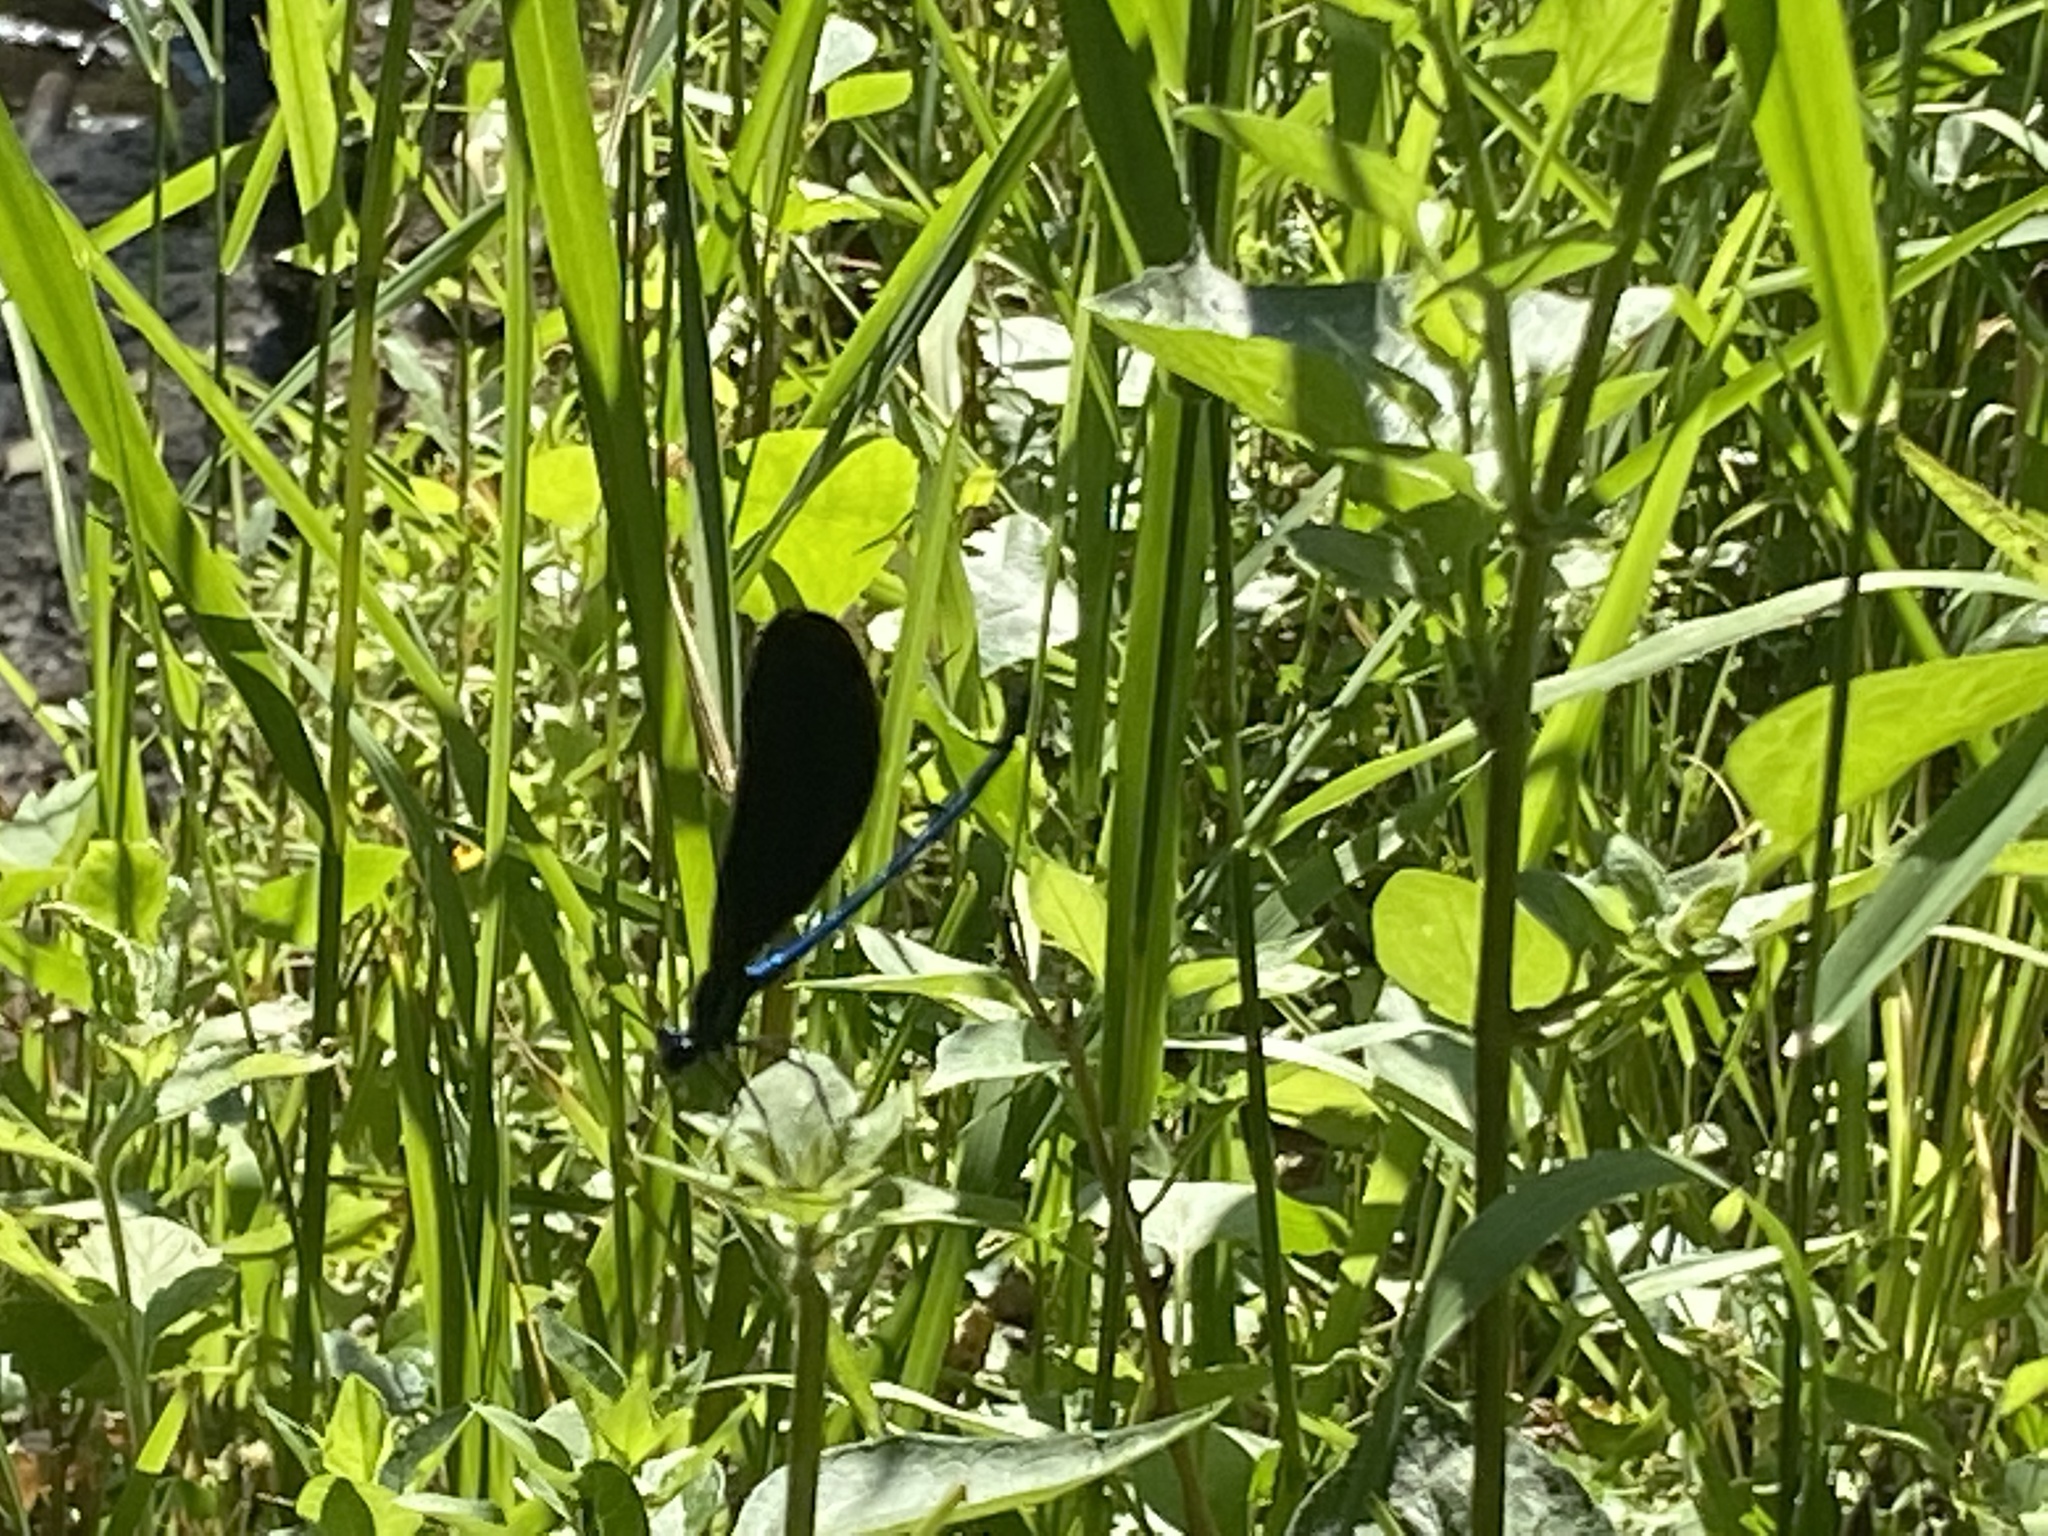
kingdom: Animalia
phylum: Arthropoda
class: Insecta
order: Odonata
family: Calopterygidae
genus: Calopteryx
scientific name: Calopteryx maculata
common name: Ebony jewelwing
